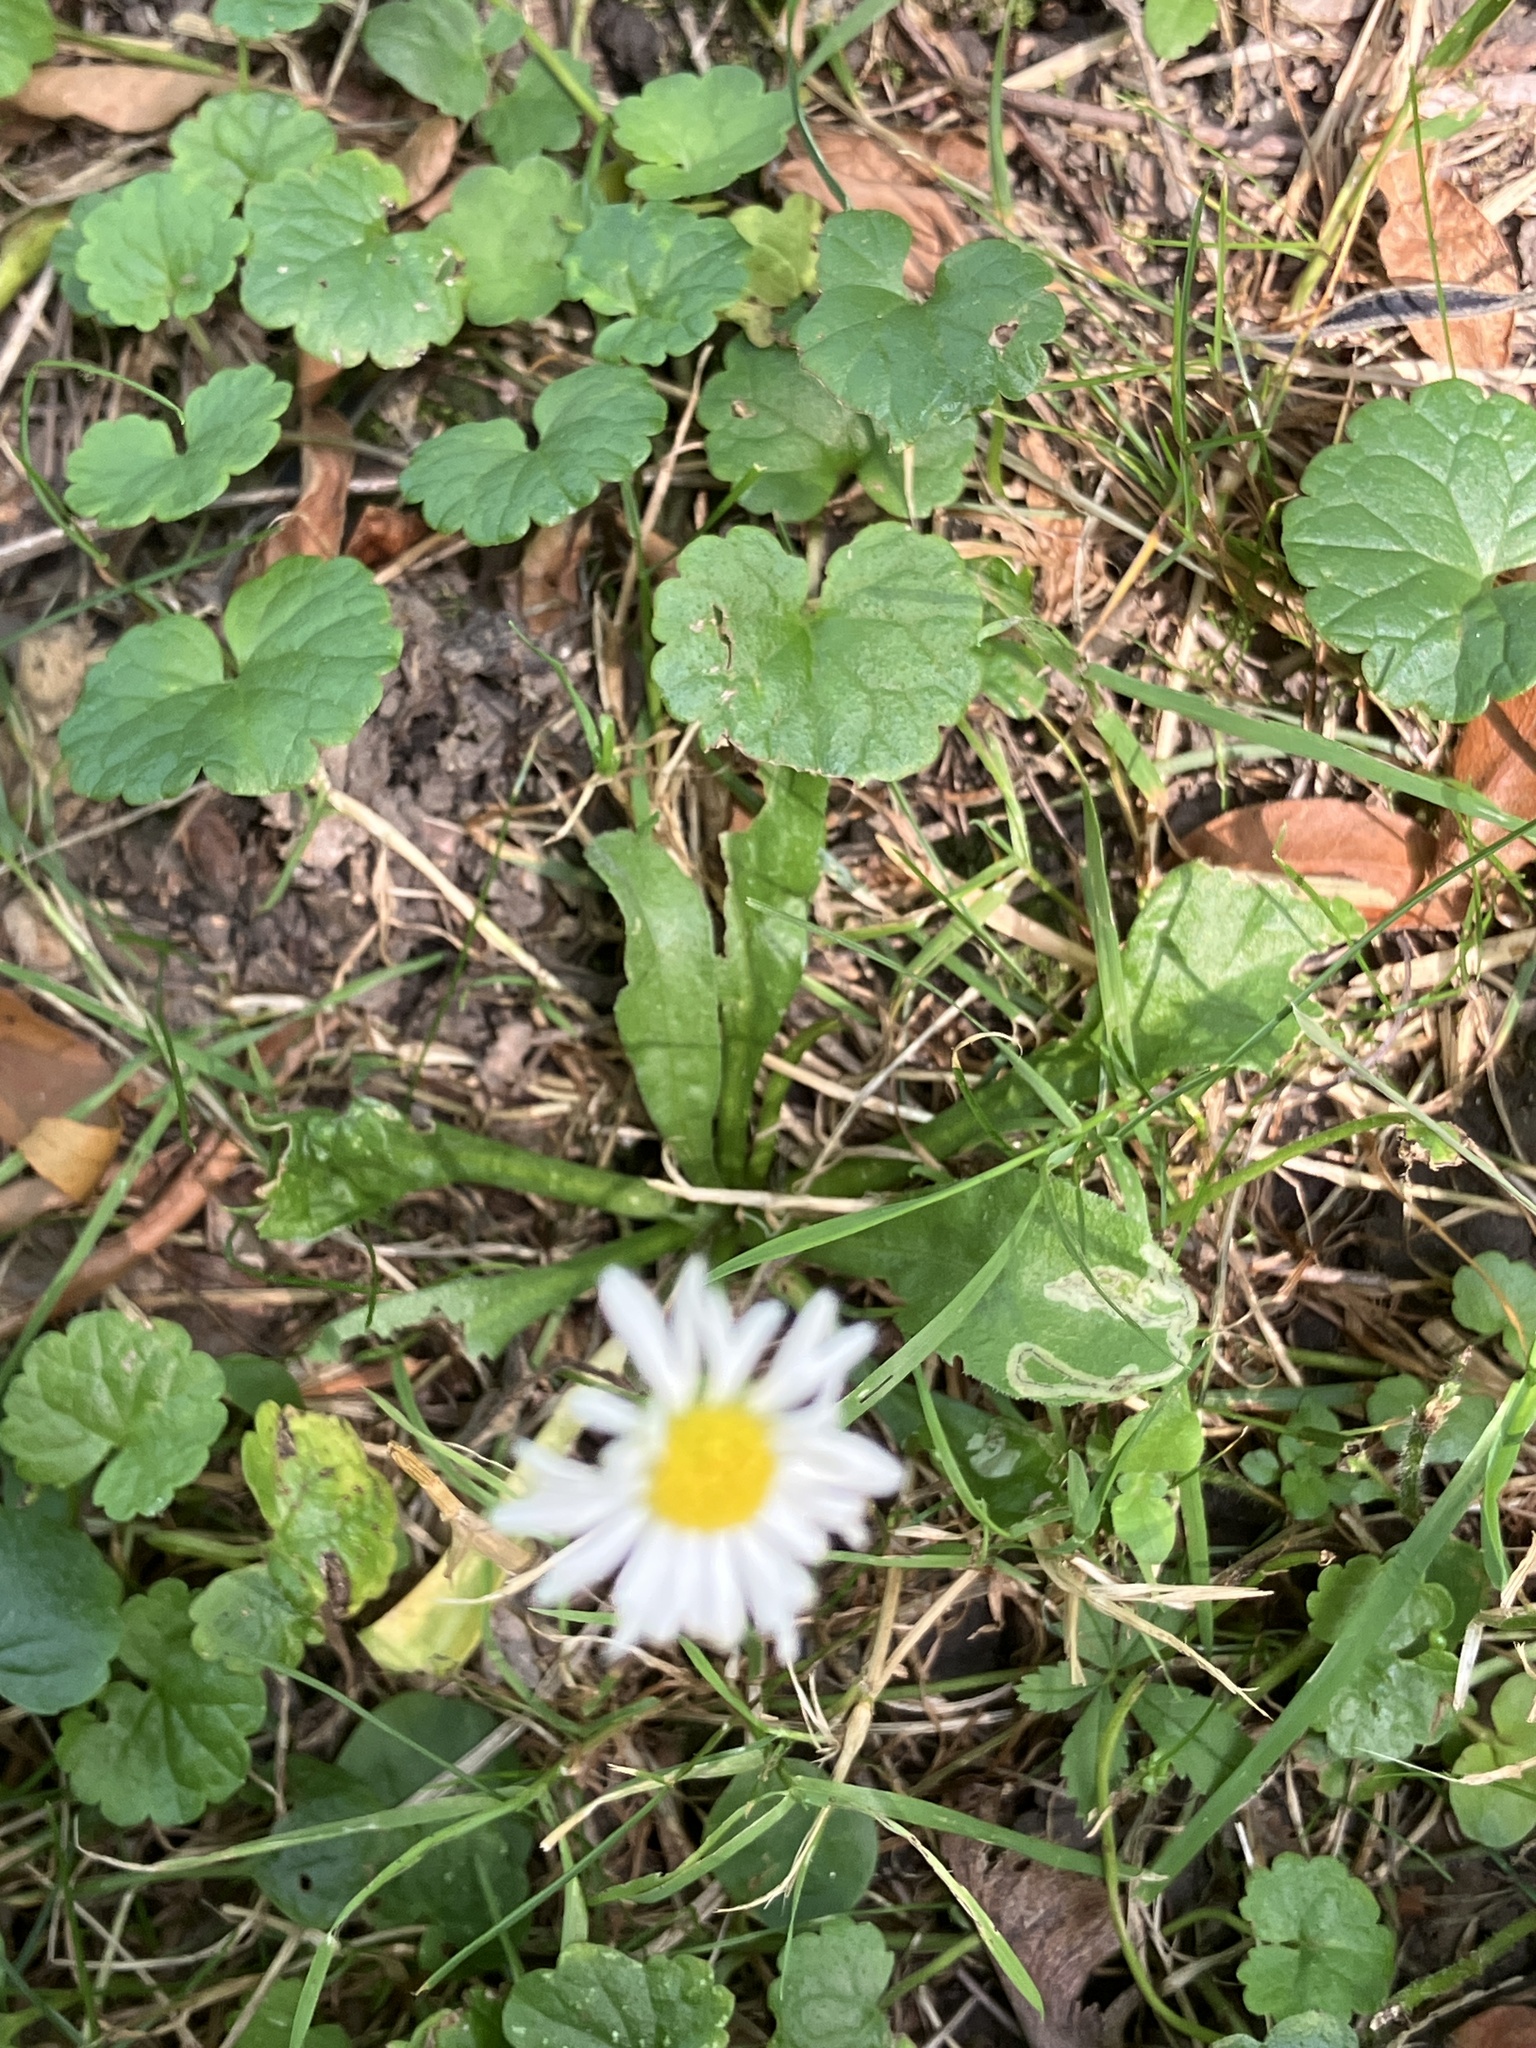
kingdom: Plantae
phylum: Tracheophyta
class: Magnoliopsida
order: Asterales
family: Asteraceae
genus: Bellis
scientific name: Bellis perennis
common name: Lawndaisy
